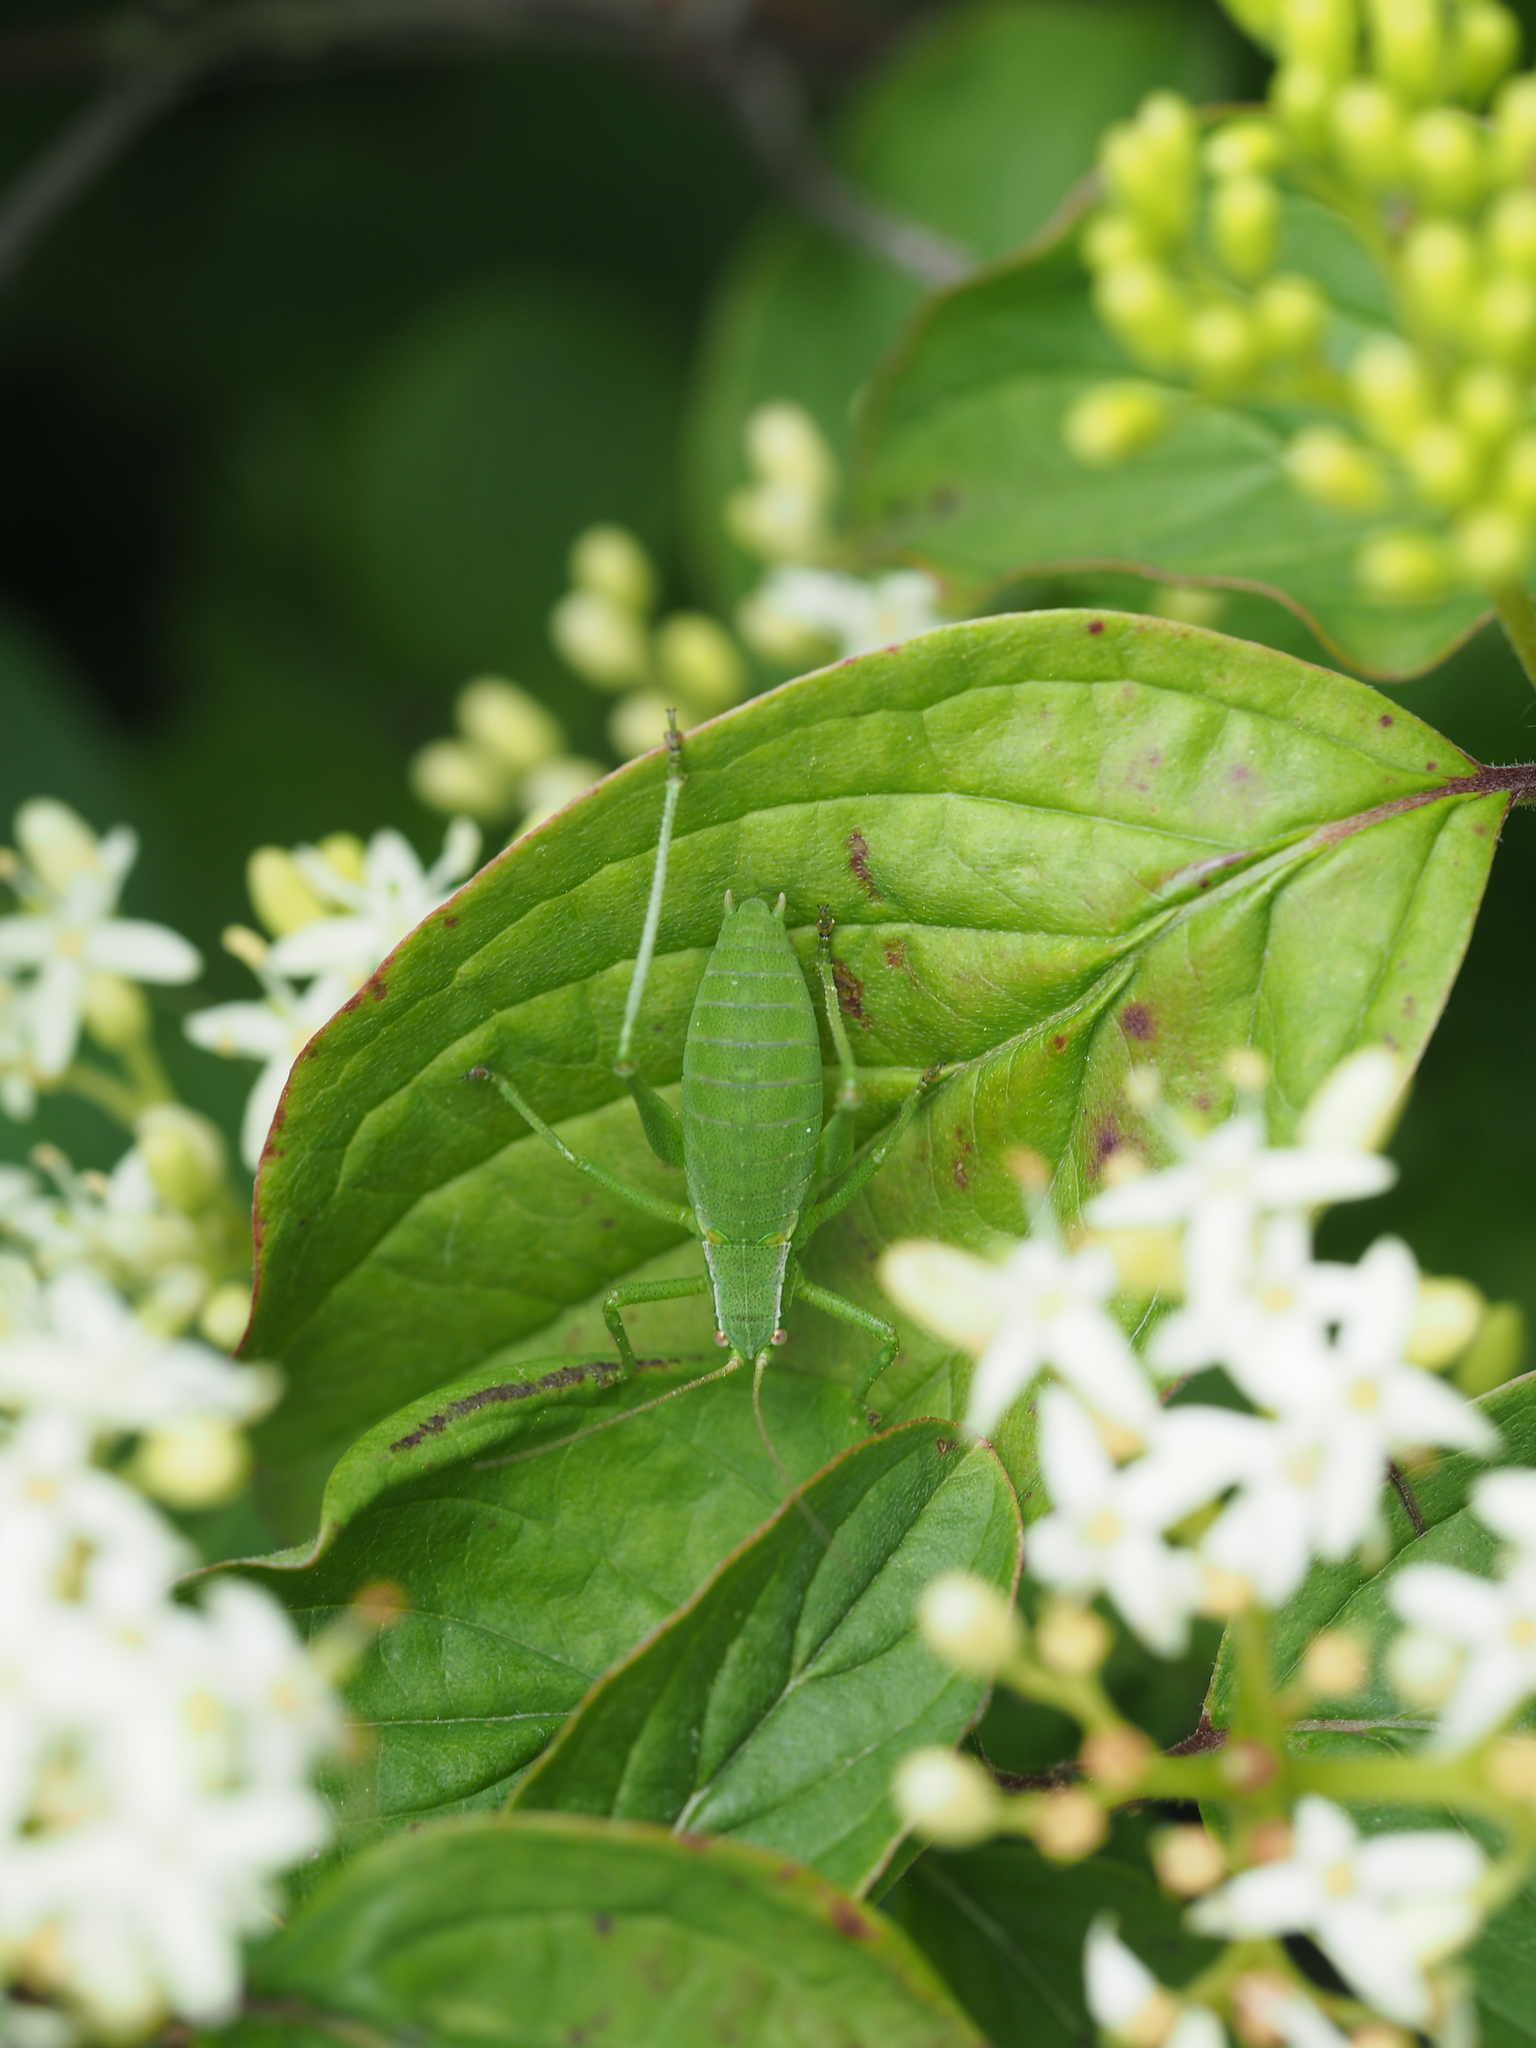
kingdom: Animalia
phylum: Arthropoda
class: Insecta
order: Orthoptera
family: Tettigoniidae
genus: Isophya
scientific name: Isophya
